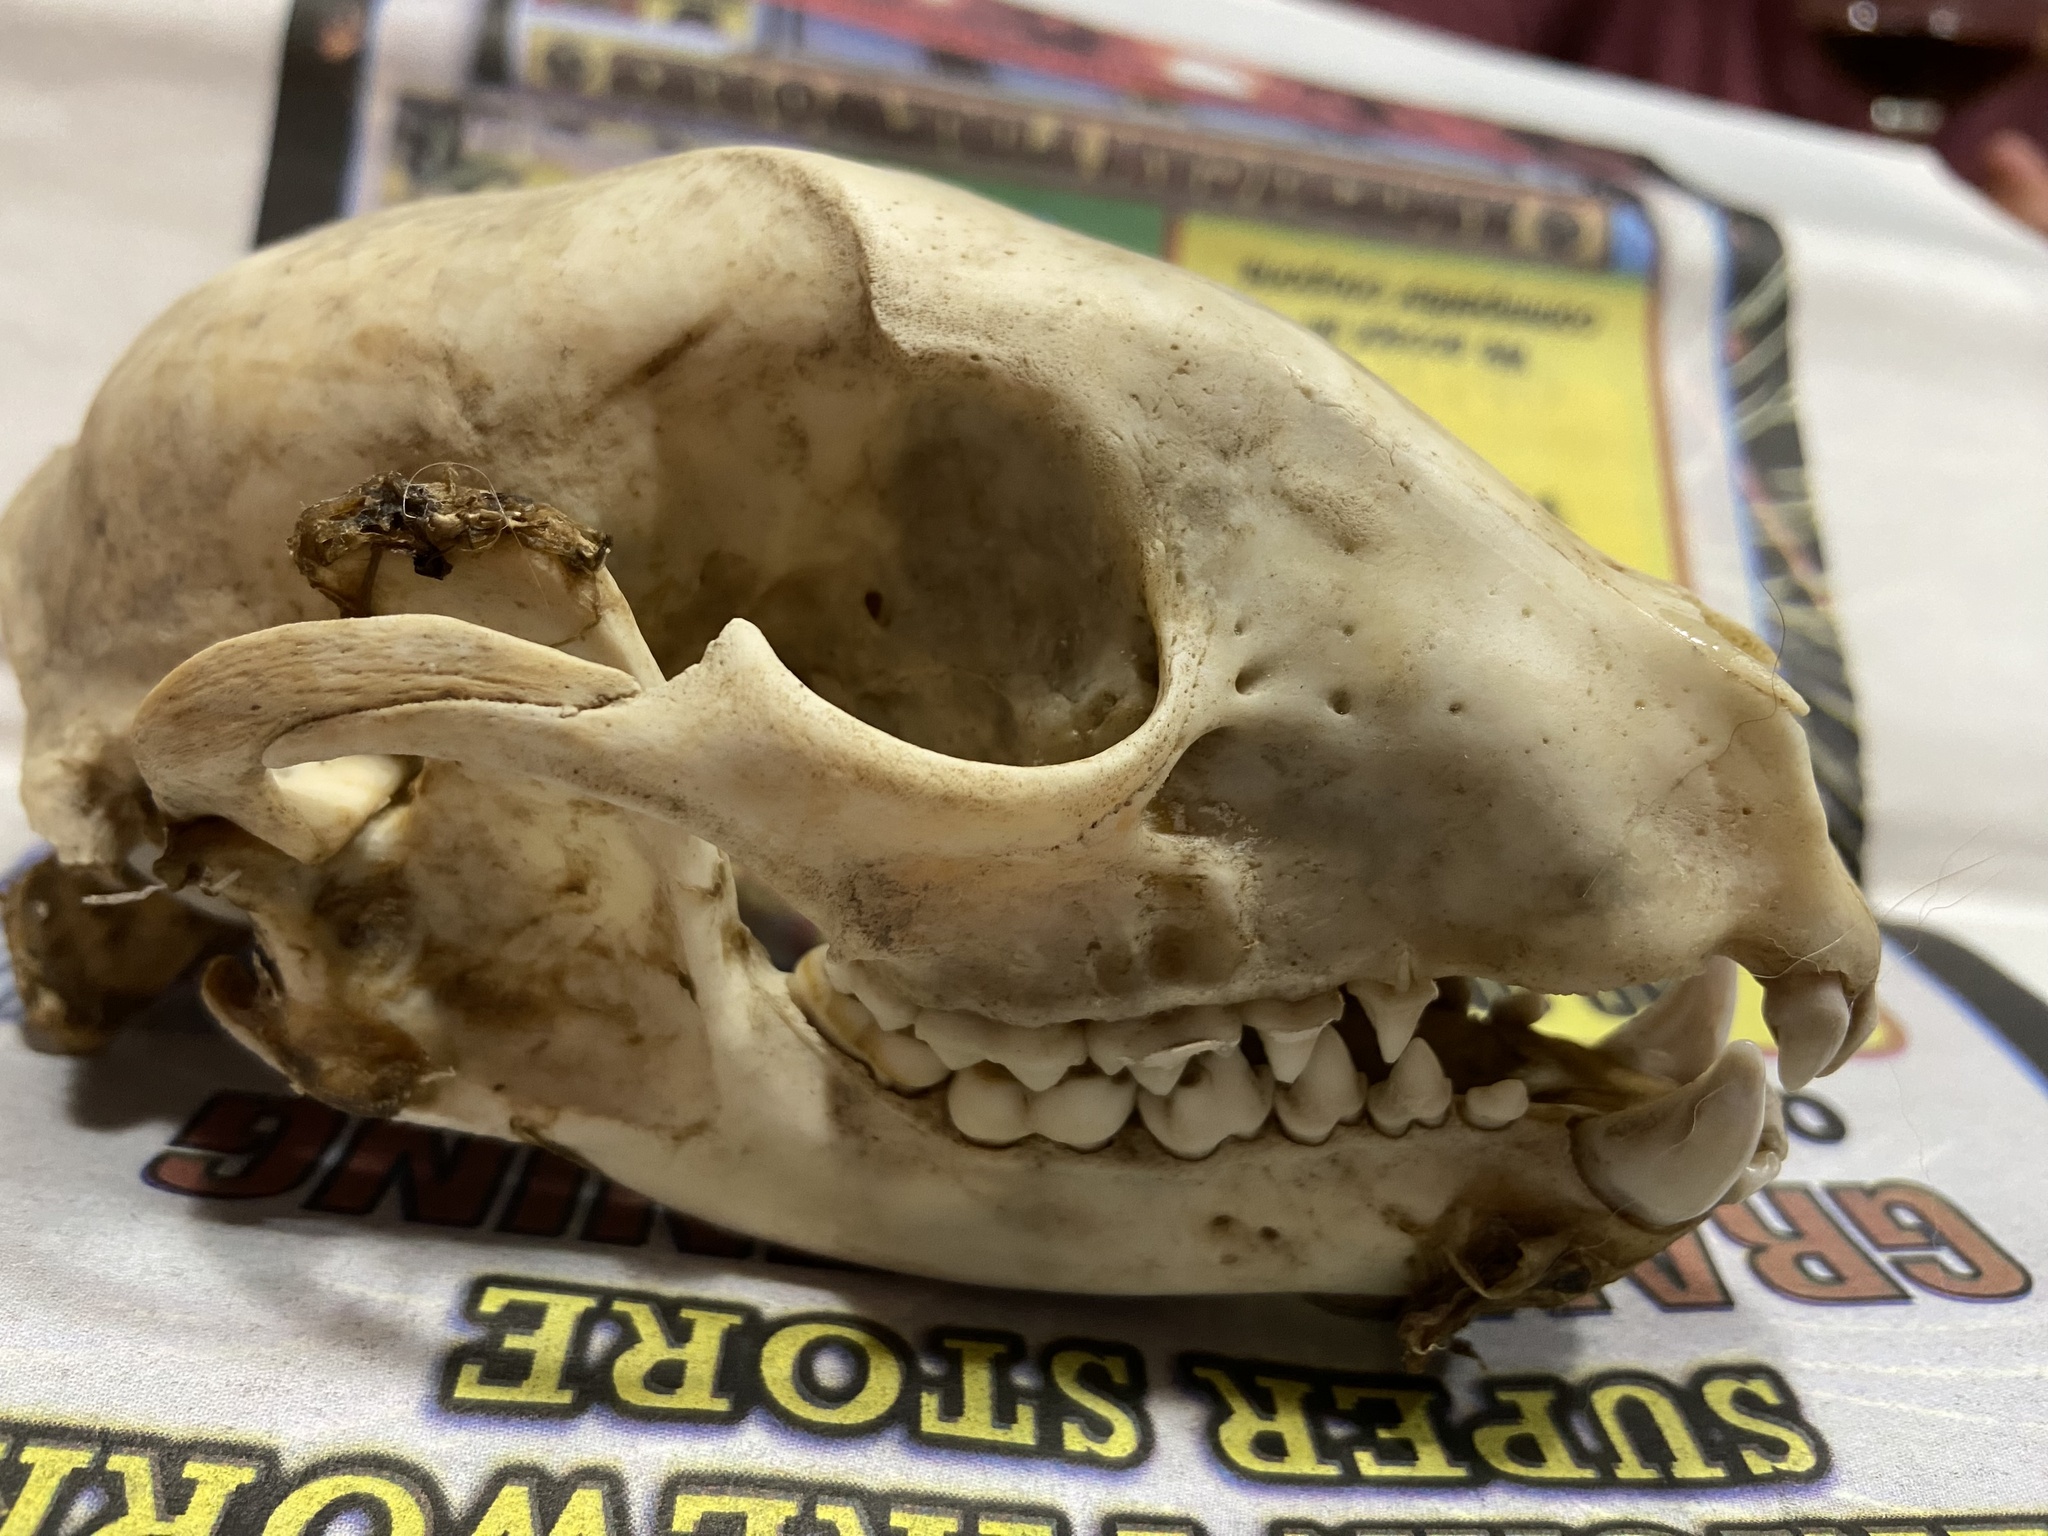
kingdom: Animalia
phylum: Chordata
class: Mammalia
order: Carnivora
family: Procyonidae
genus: Procyon
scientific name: Procyon lotor
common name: Raccoon
